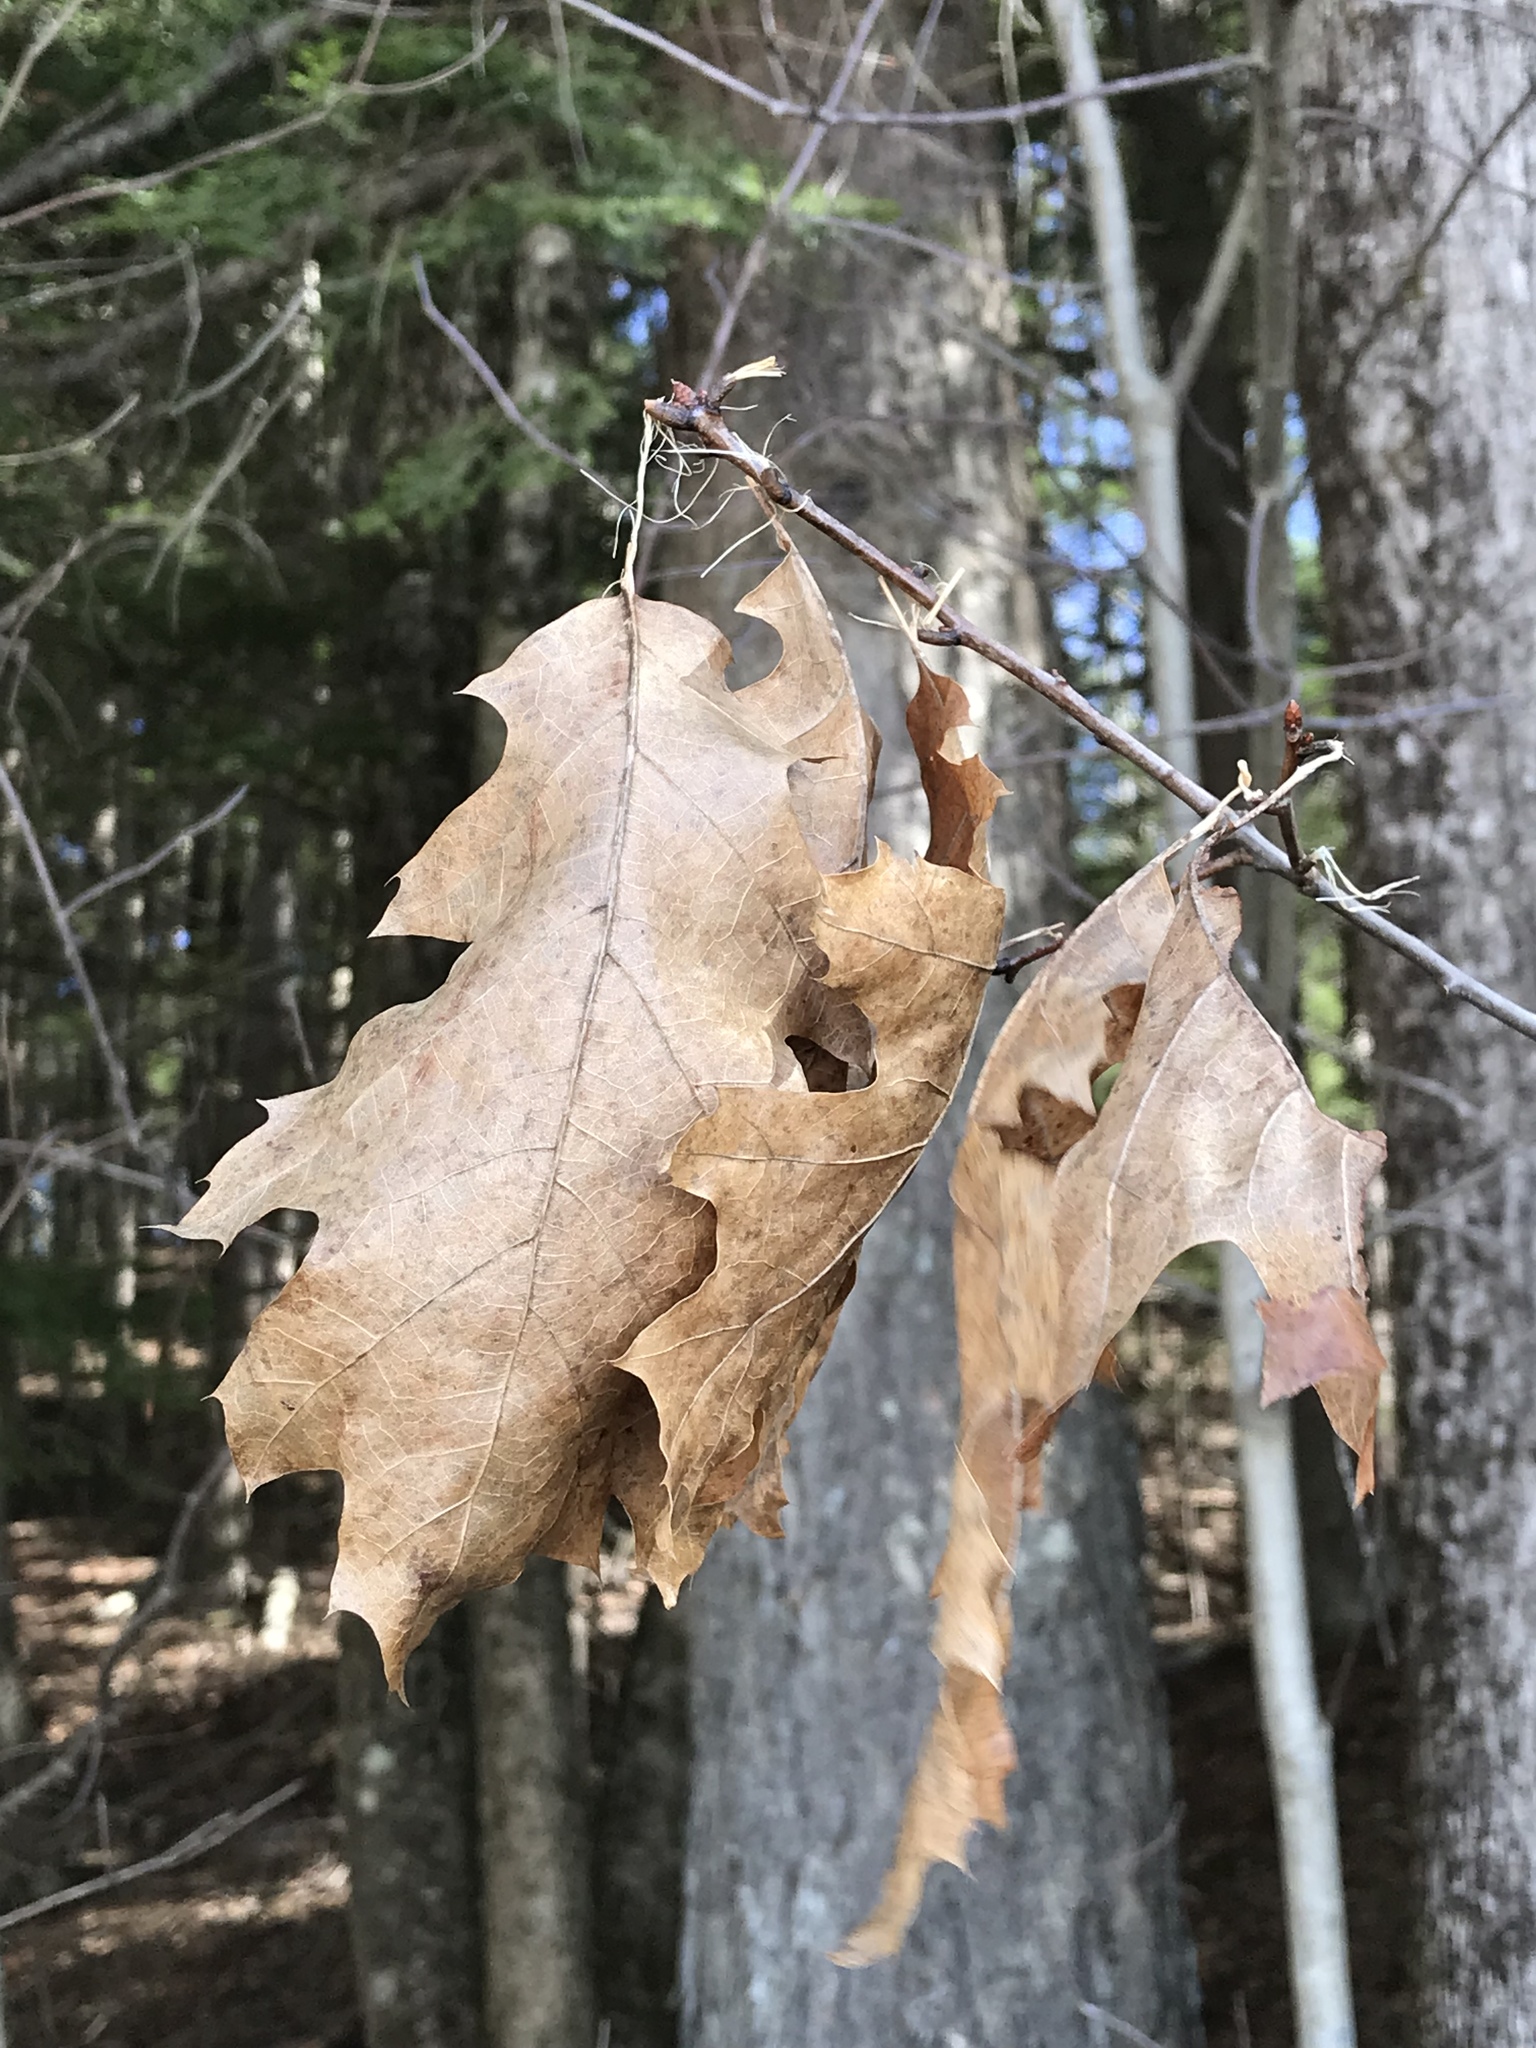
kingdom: Plantae
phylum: Tracheophyta
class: Magnoliopsida
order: Fagales
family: Fagaceae
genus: Quercus
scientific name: Quercus rubra
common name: Red oak
